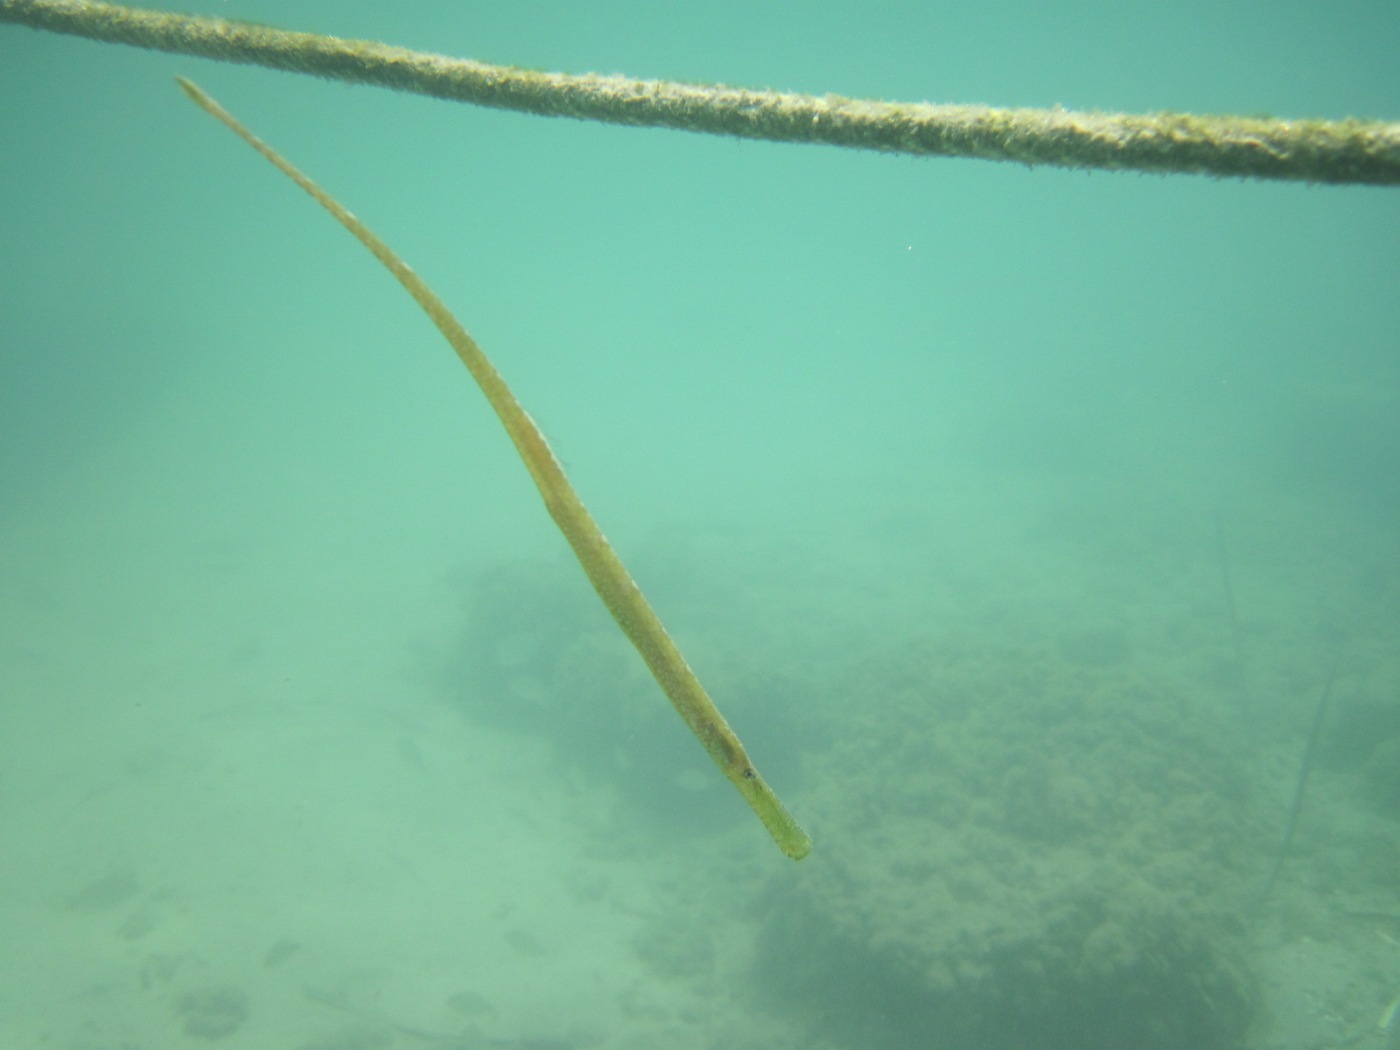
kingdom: Animalia
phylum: Chordata
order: Syngnathiformes
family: Syngnathidae
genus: Syngnathus
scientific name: Syngnathus typhle
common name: Deep-snouted pipefish
